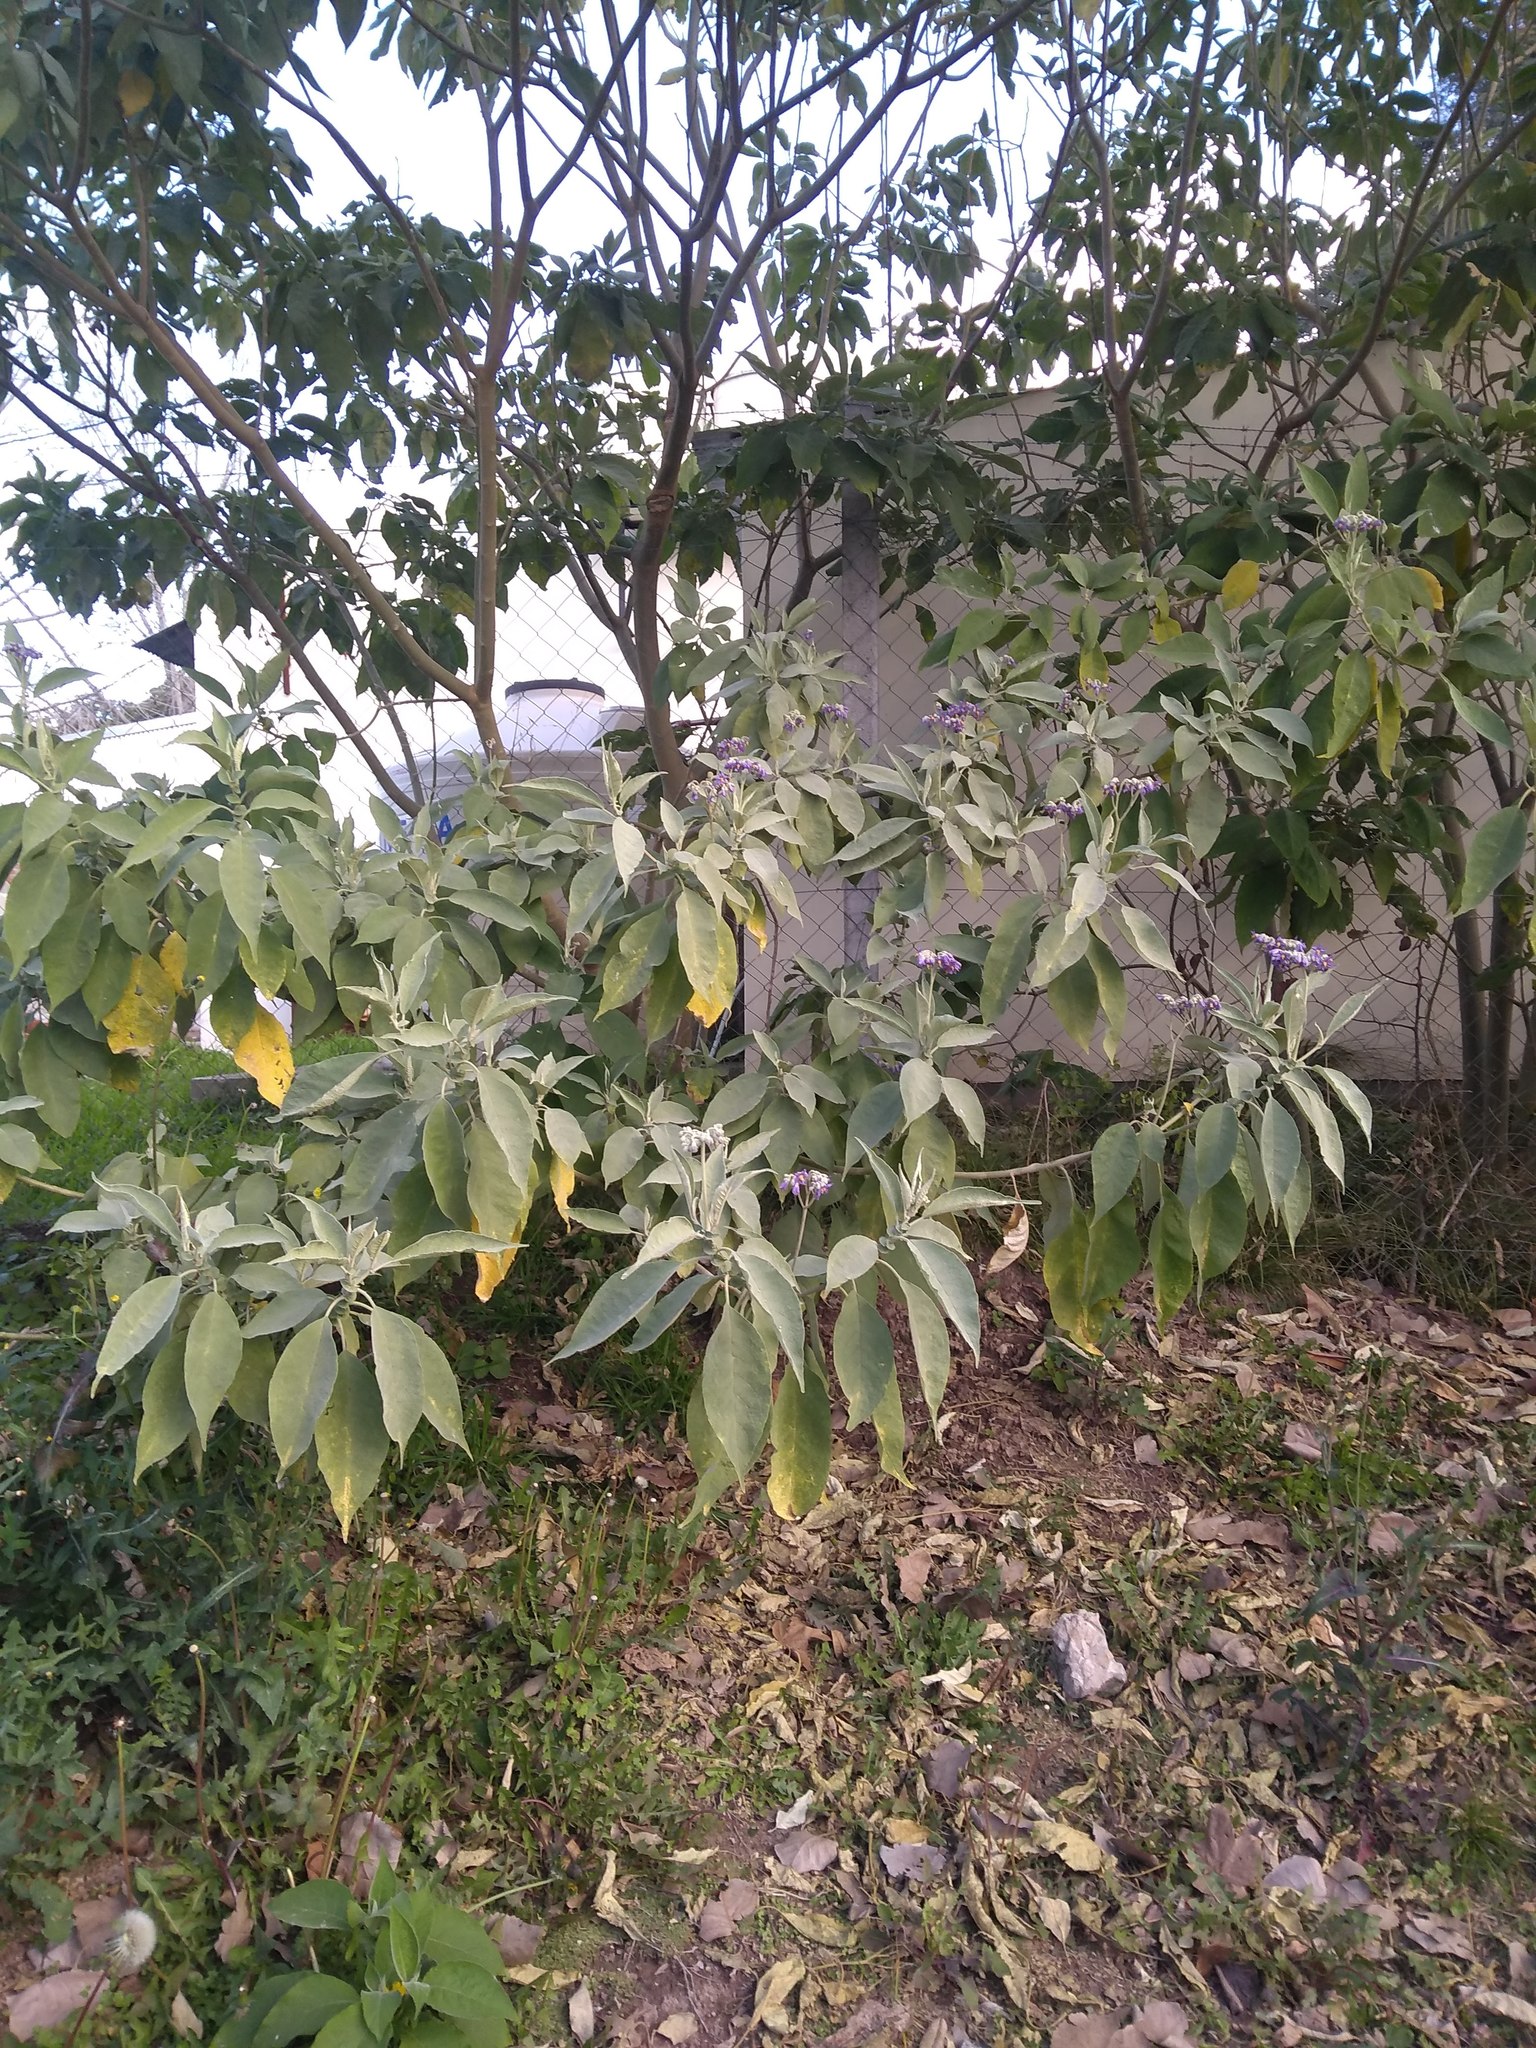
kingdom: Plantae
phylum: Tracheophyta
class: Magnoliopsida
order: Solanales
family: Solanaceae
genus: Solanum
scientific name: Solanum granulosoleprosum
